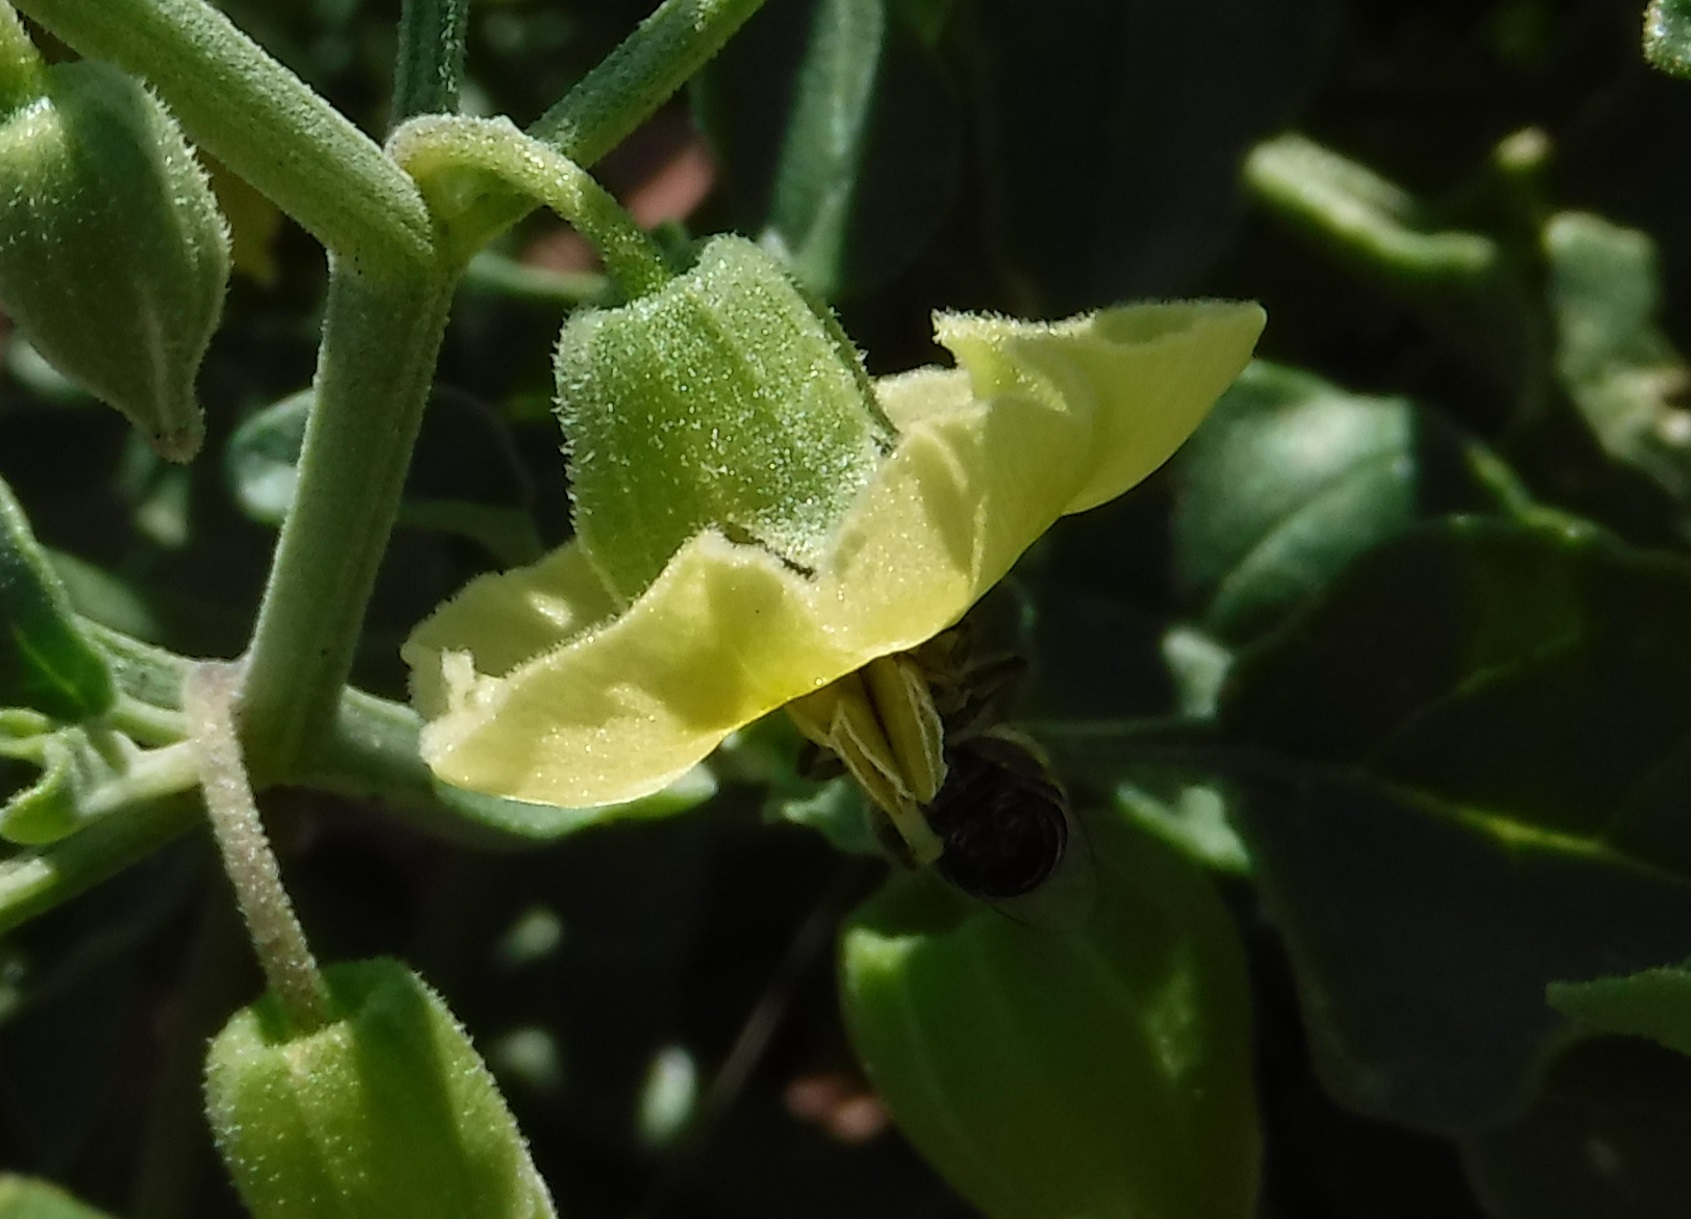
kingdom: Animalia
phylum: Arthropoda
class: Insecta
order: Hymenoptera
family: Colletidae
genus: Colletes
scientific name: Colletes
